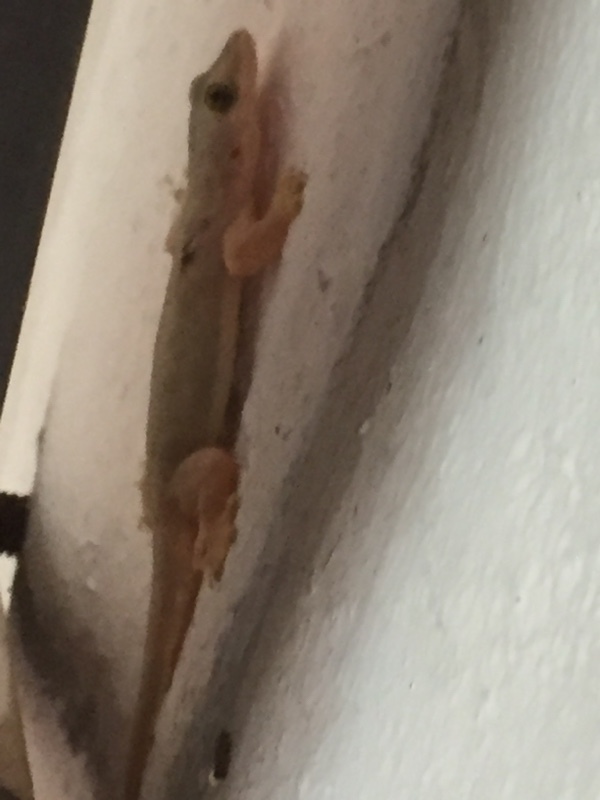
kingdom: Animalia
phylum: Chordata
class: Squamata
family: Gekkonidae
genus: Hemidactylus
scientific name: Hemidactylus platyurus
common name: Flat-tailed house gecko
